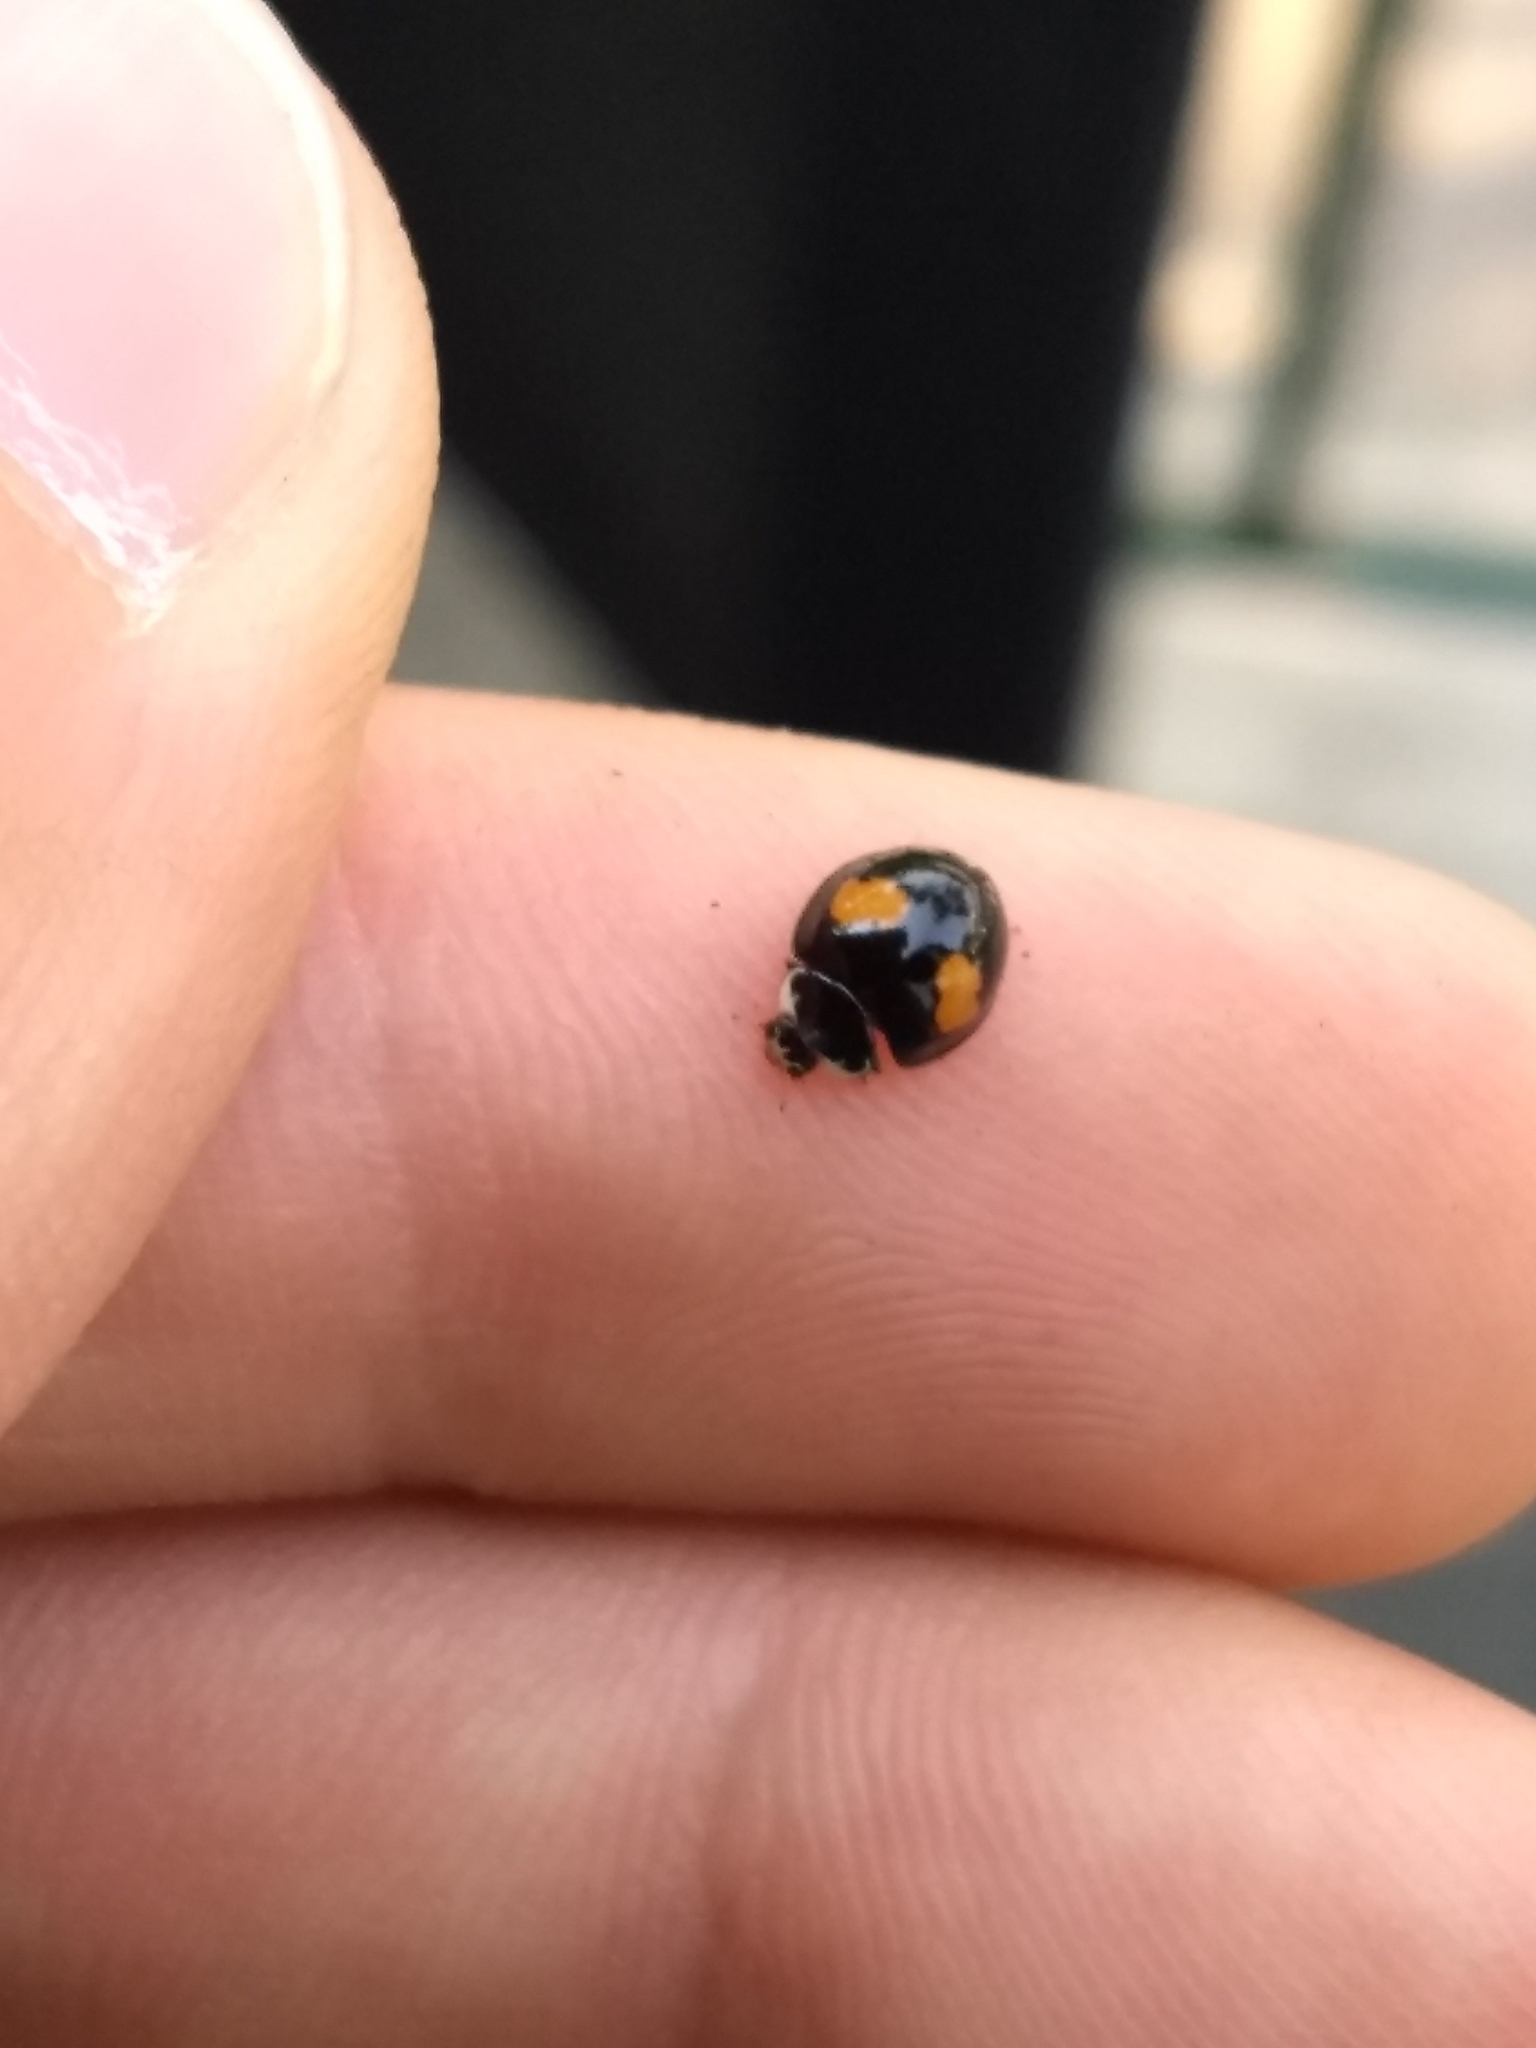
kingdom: Animalia
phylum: Arthropoda
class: Insecta
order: Coleoptera
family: Coccinellidae
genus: Olla
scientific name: Olla v-nigrum
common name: Ashy gray lady beetle
